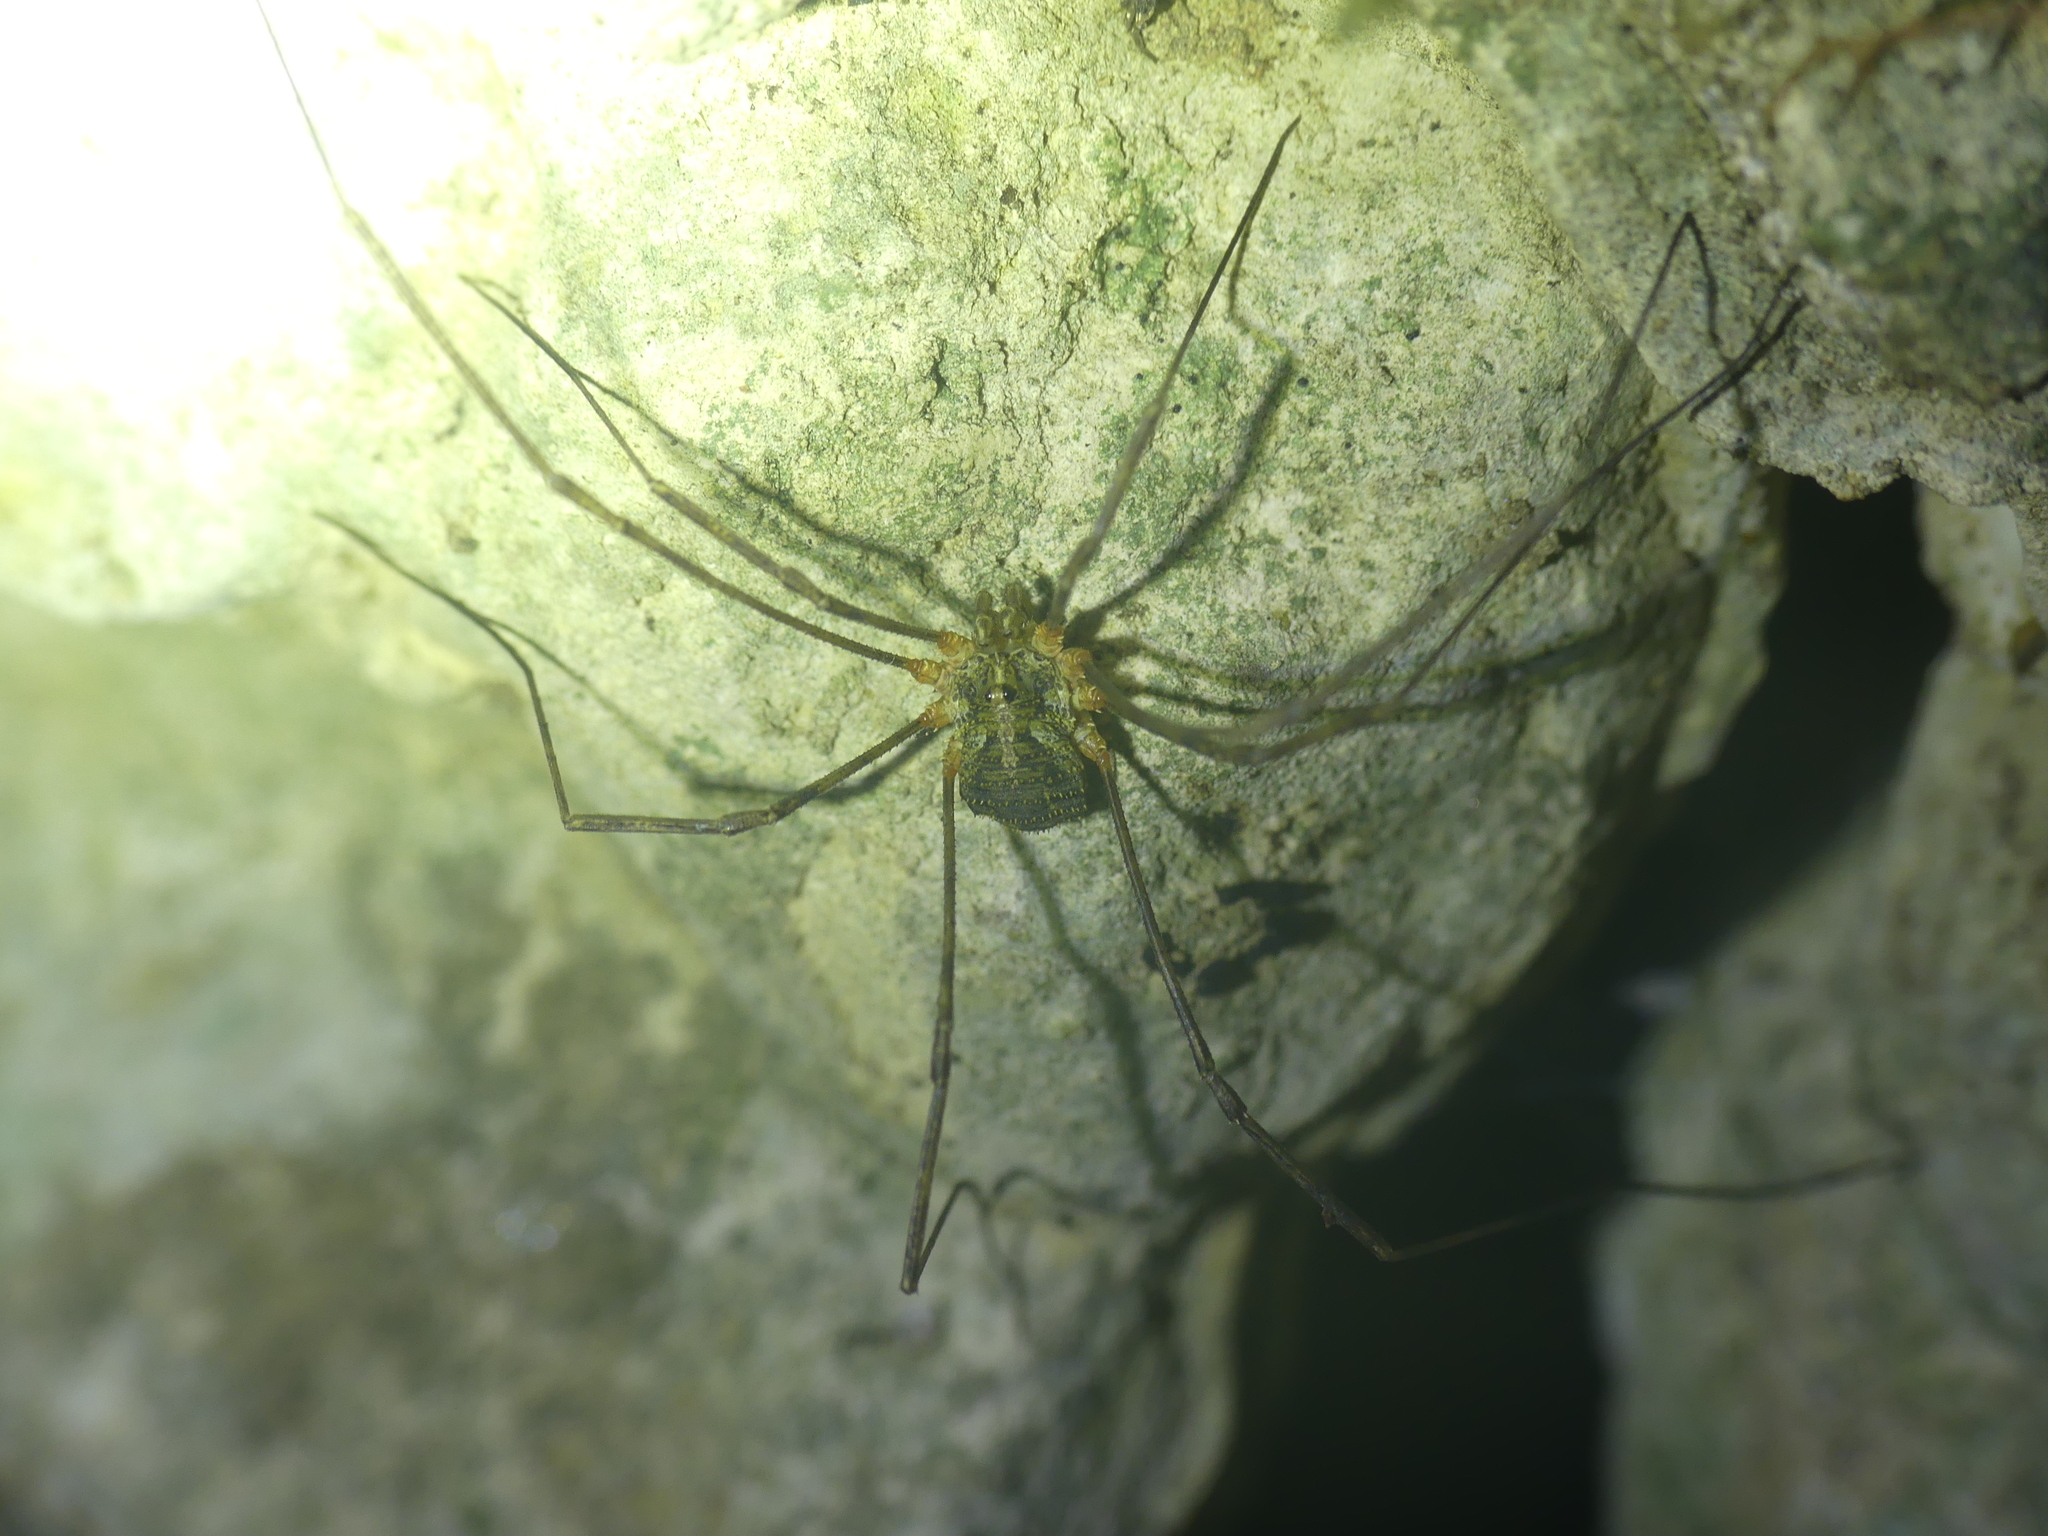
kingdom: Animalia
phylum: Arthropoda
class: Arachnida
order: Opiliones
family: Phalangiidae
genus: Lacinius
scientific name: Lacinius dentiger
